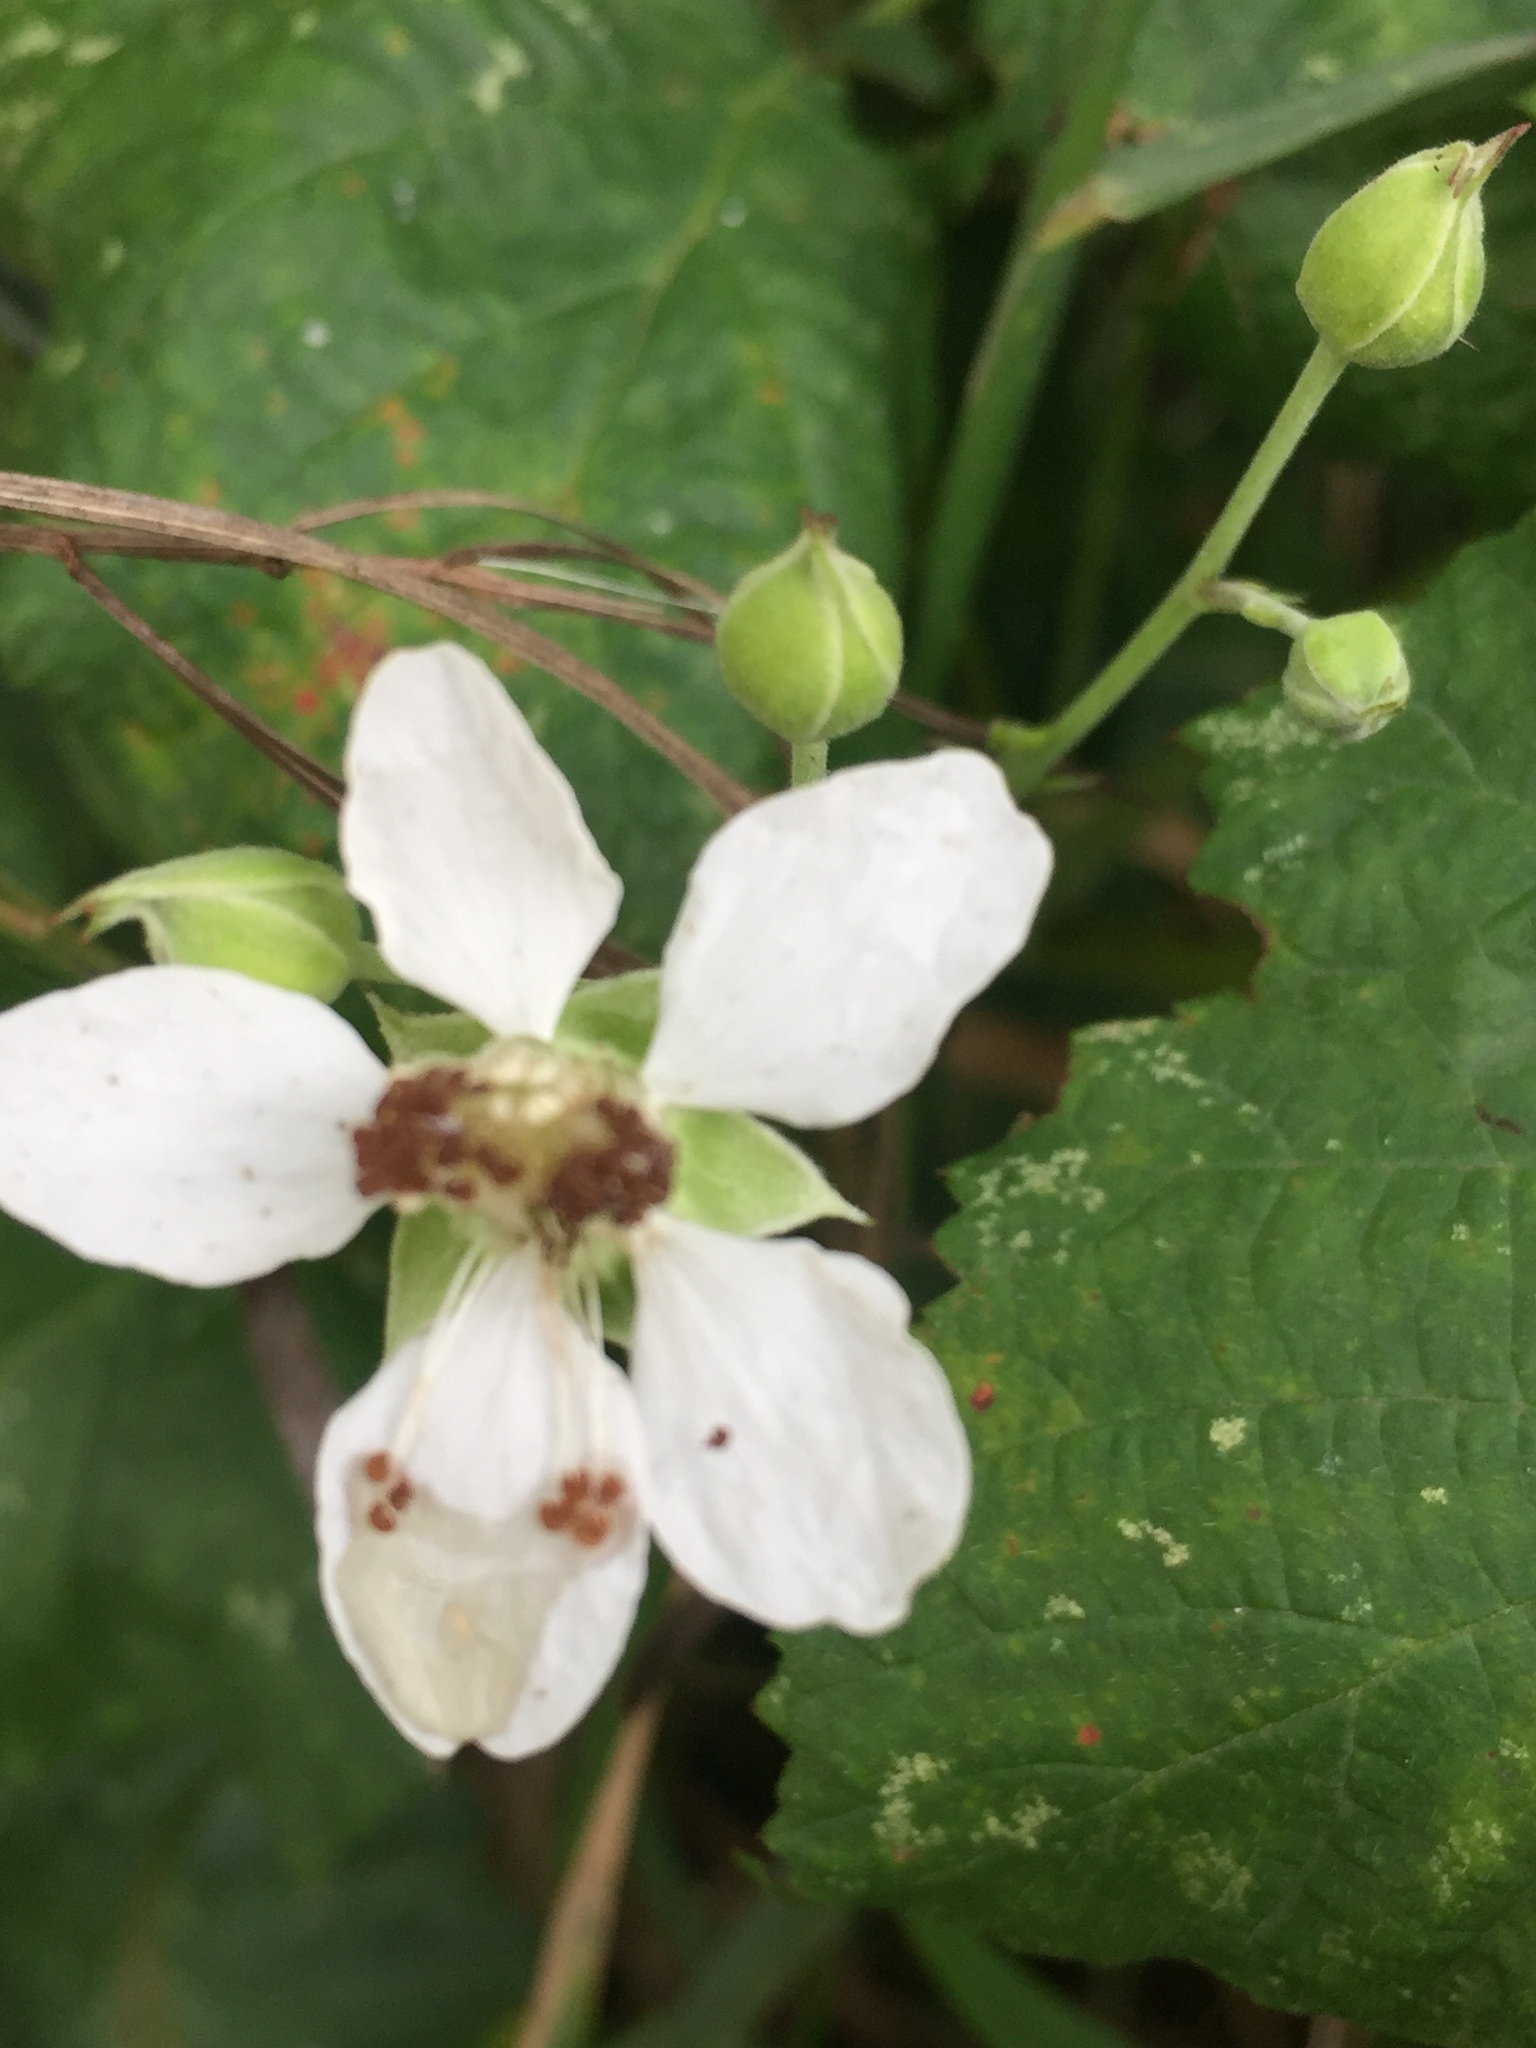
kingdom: Plantae
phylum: Tracheophyta
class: Magnoliopsida
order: Rosales
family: Rosaceae
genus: Rubus
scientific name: Rubus caesius
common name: Dewberry
